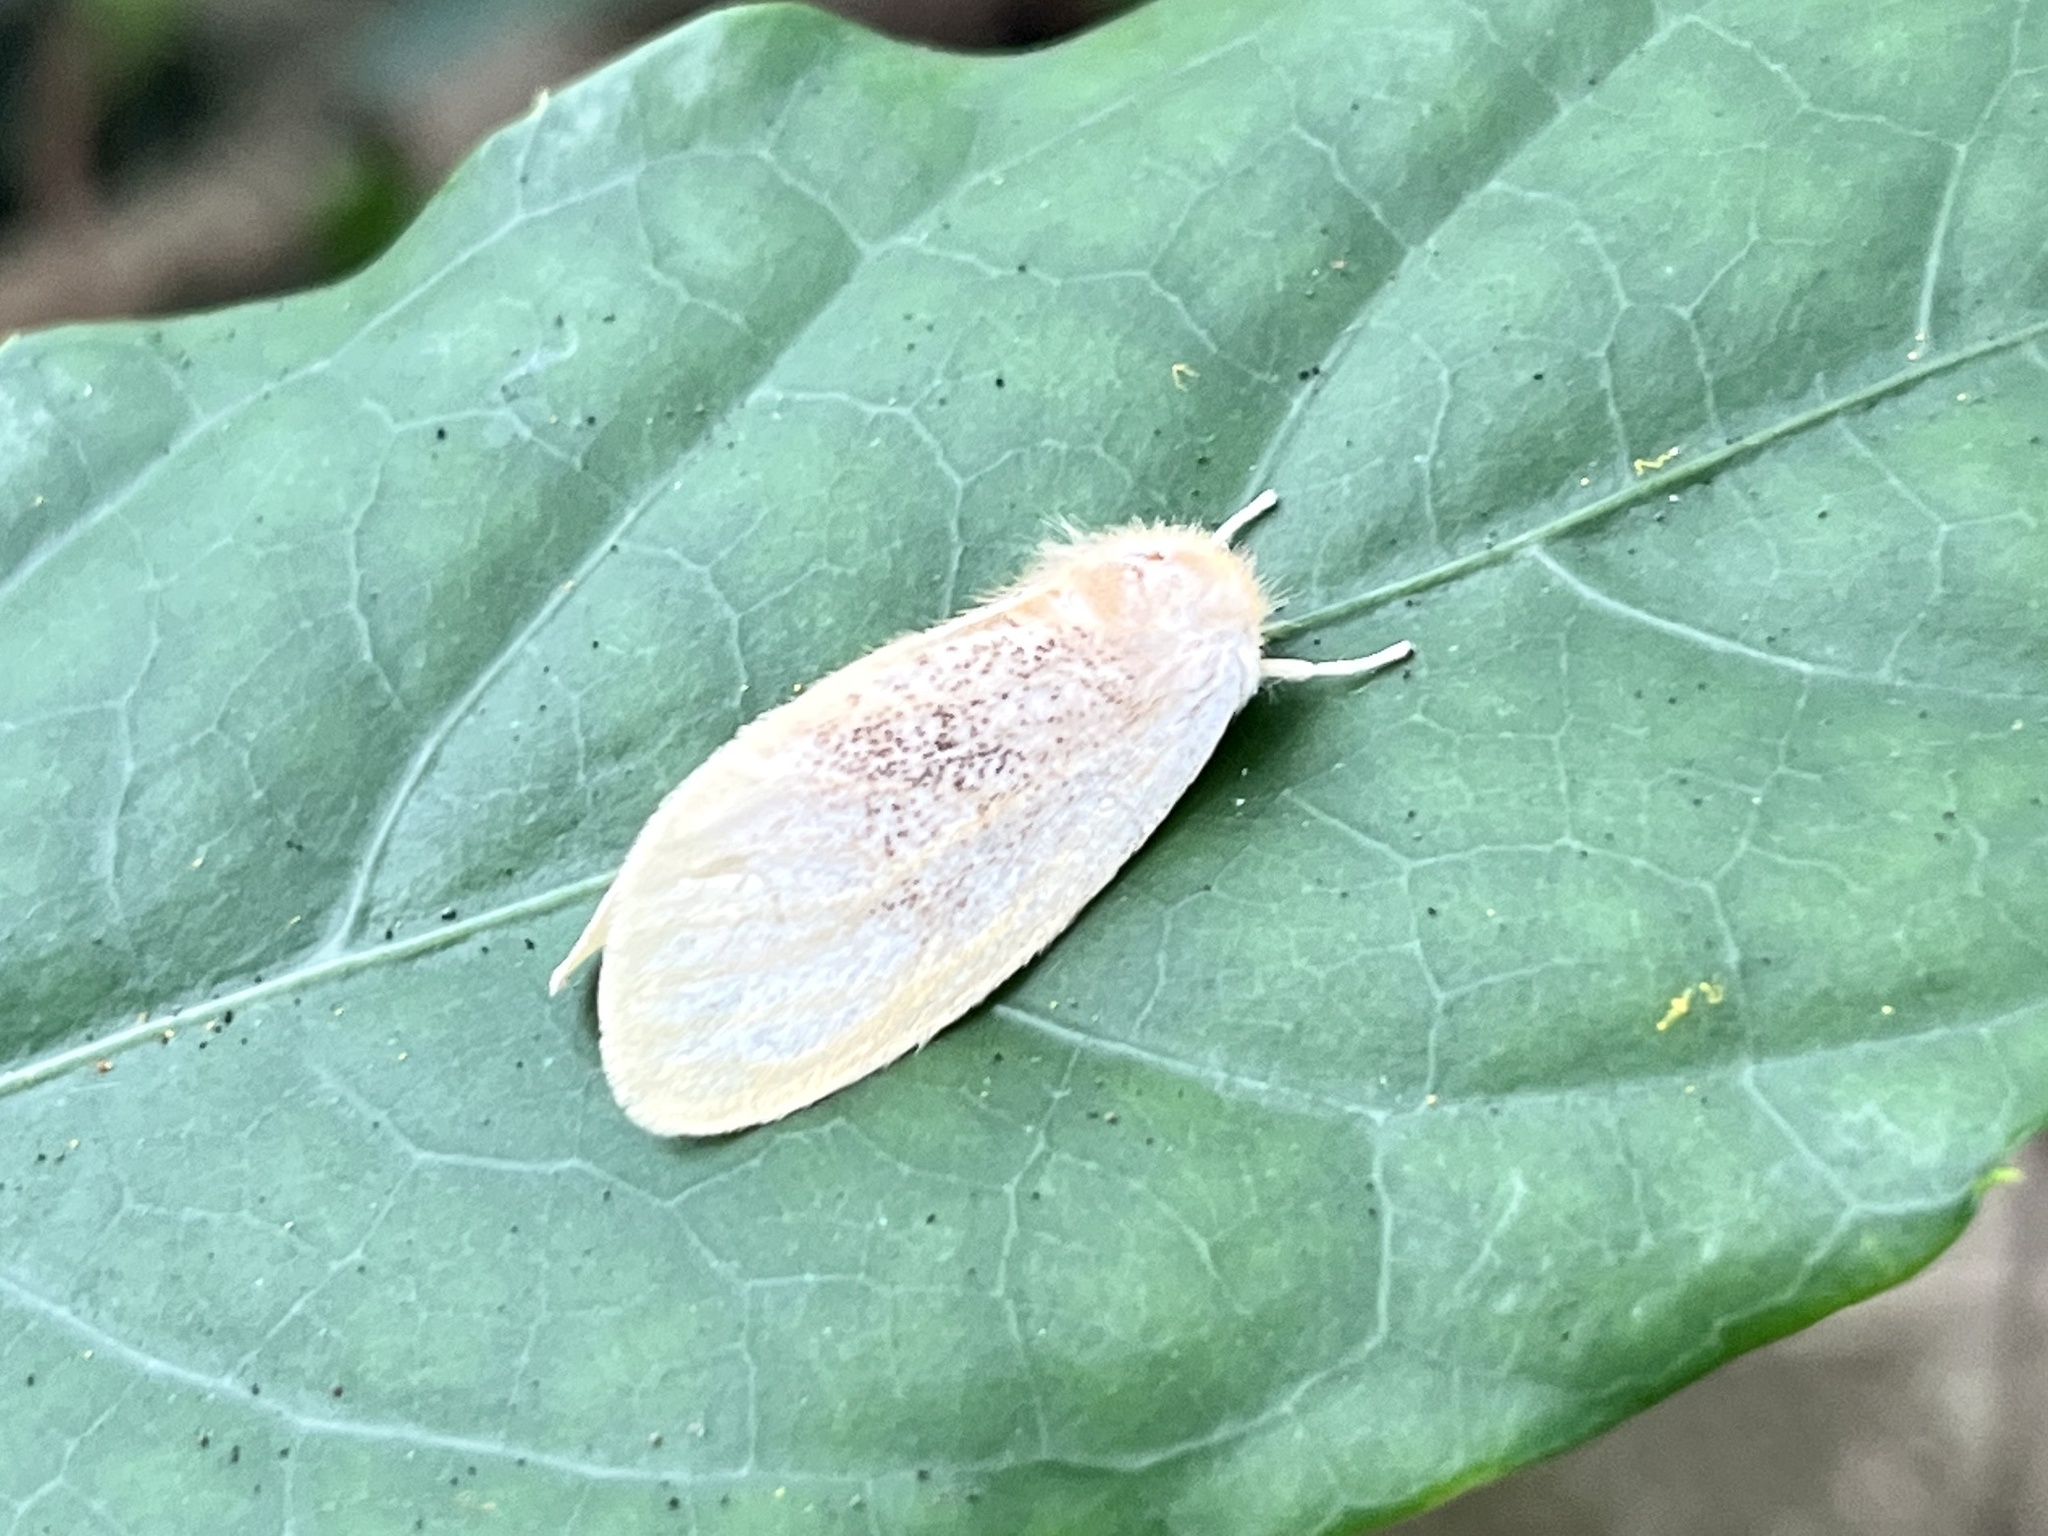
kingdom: Animalia
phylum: Arthropoda
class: Insecta
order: Lepidoptera
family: Erebidae
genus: Perina
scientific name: Perina nuda
